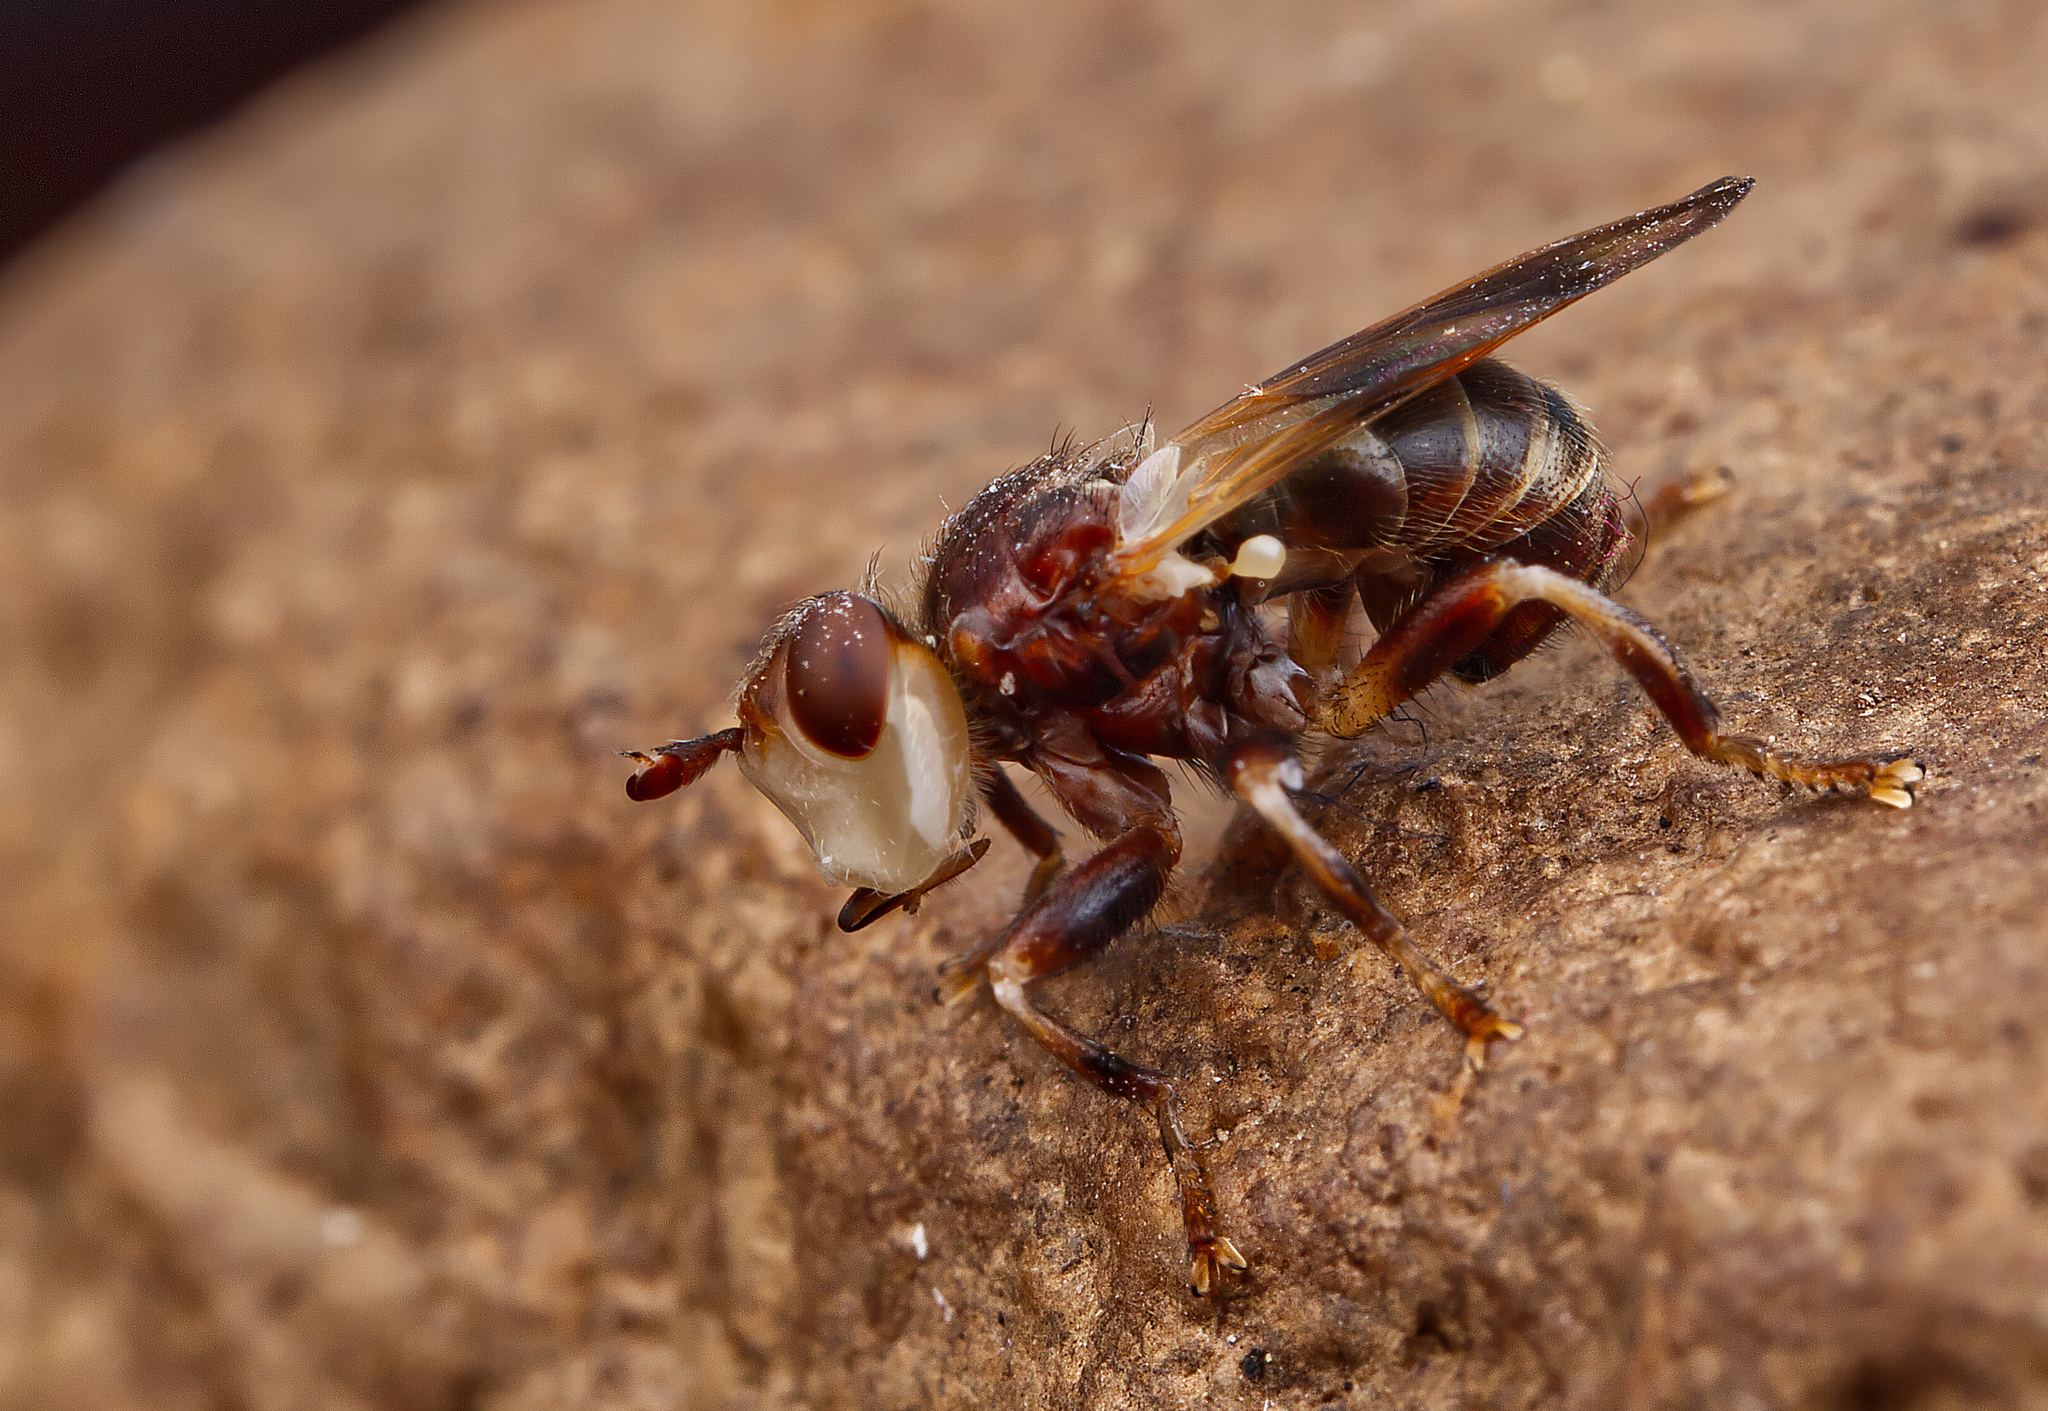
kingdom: Animalia
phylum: Arthropoda
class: Insecta
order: Diptera
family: Conopidae
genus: Myopa
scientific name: Myopa vesiculosa
